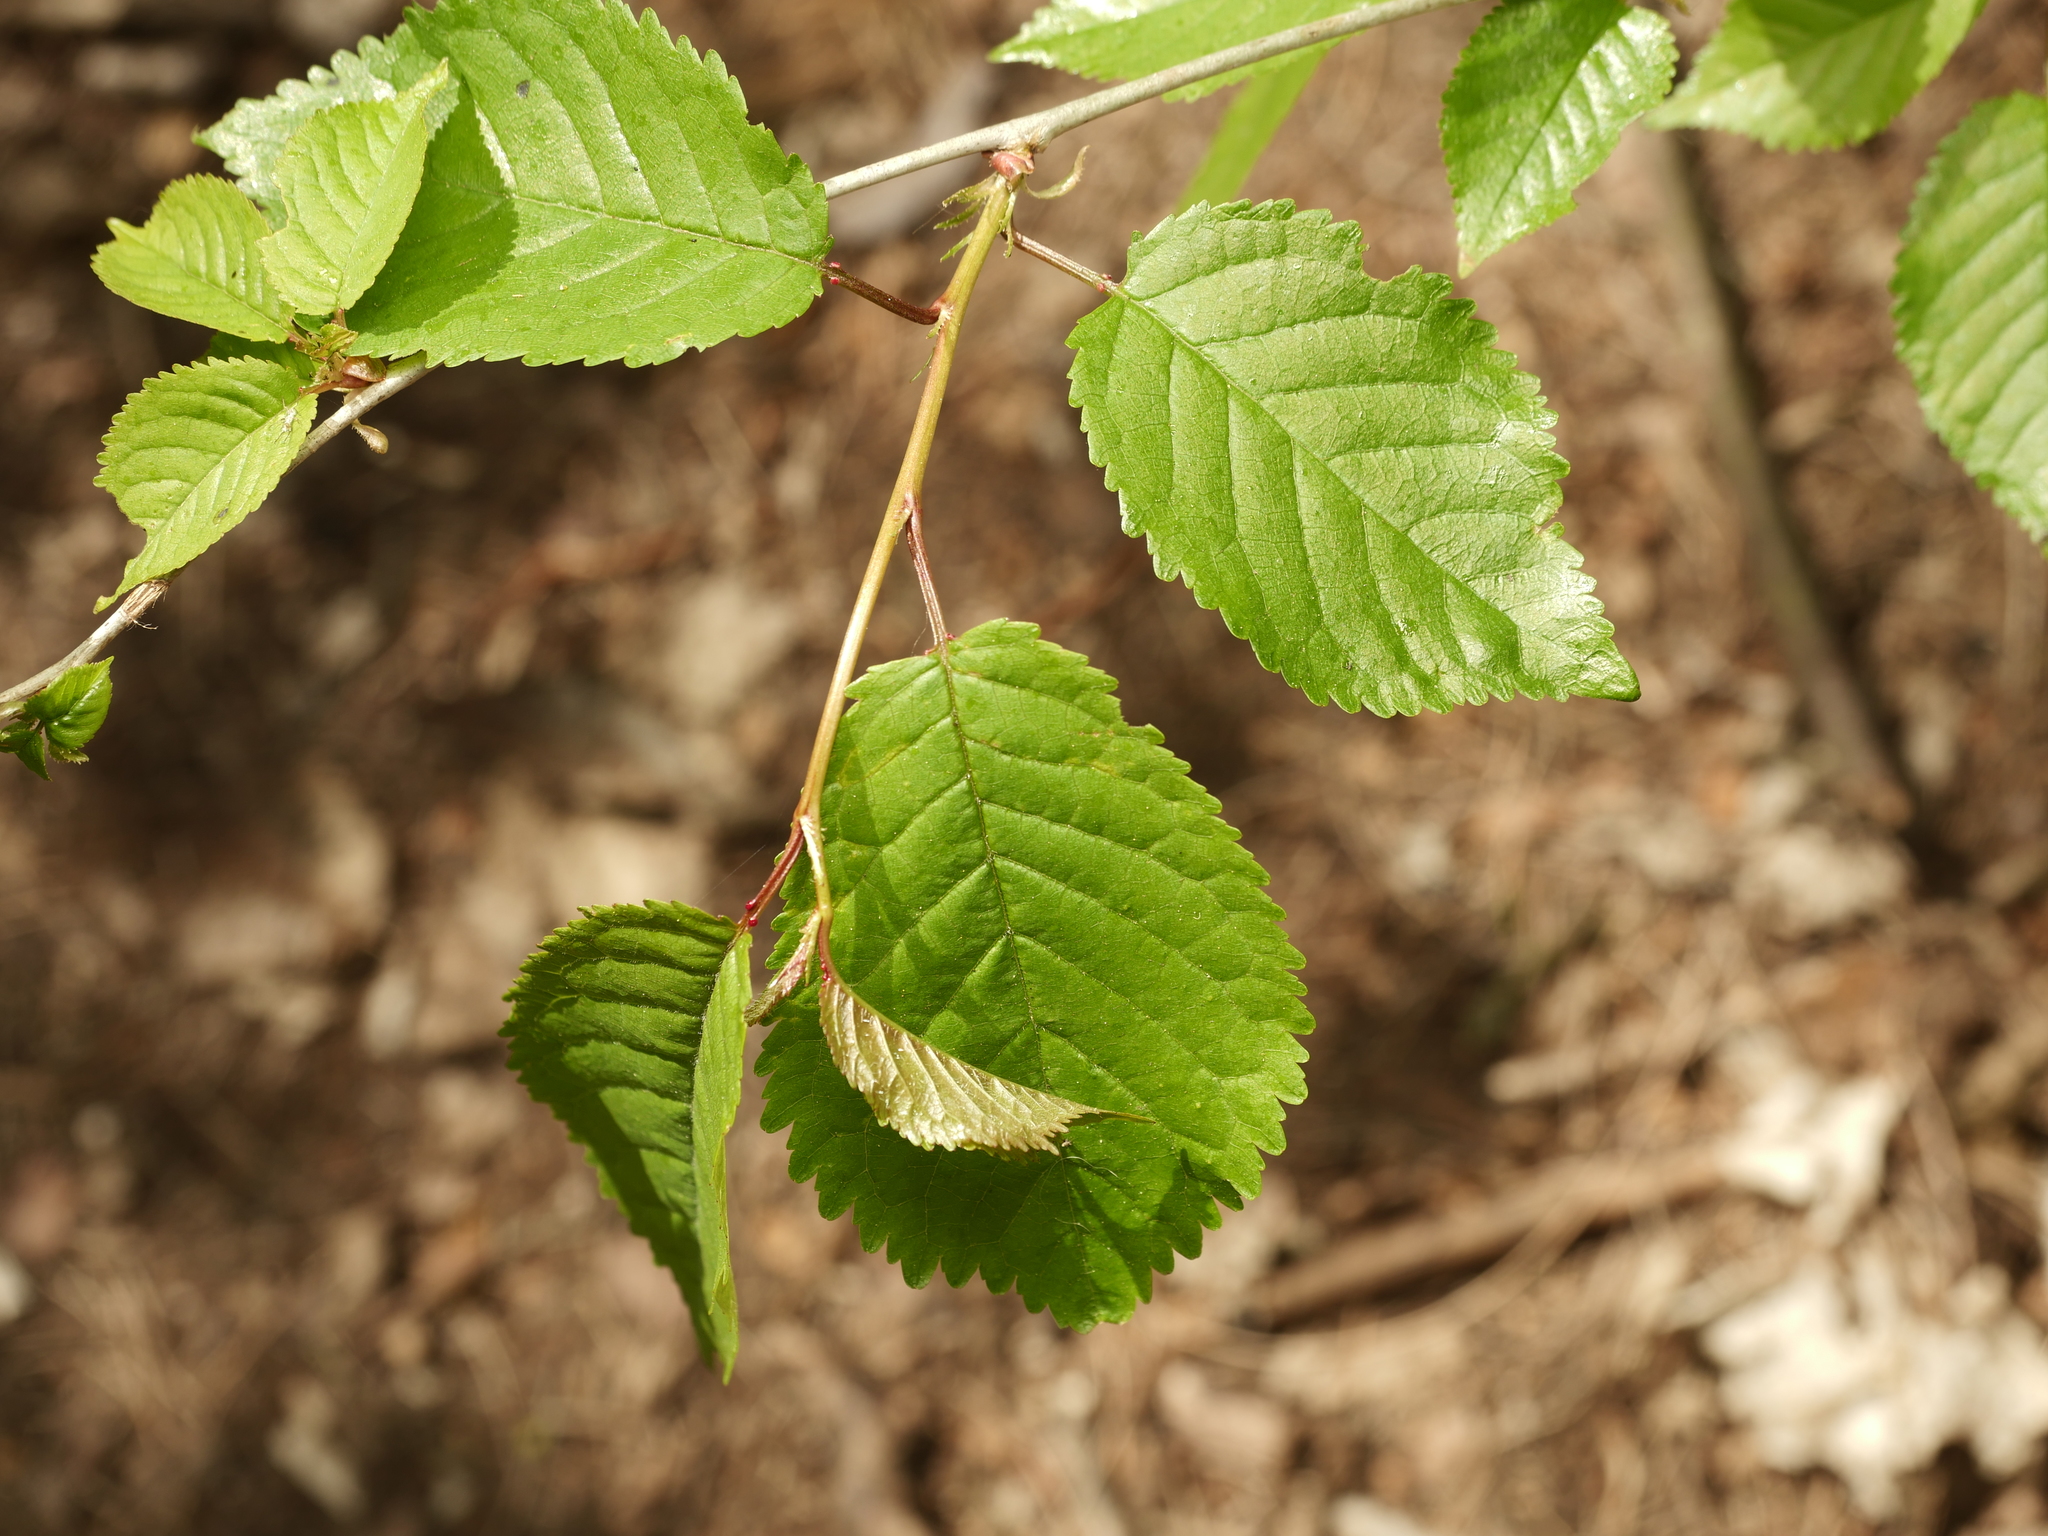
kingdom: Plantae
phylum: Tracheophyta
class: Magnoliopsida
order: Rosales
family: Rosaceae
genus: Prunus
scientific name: Prunus avium
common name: Sweet cherry
